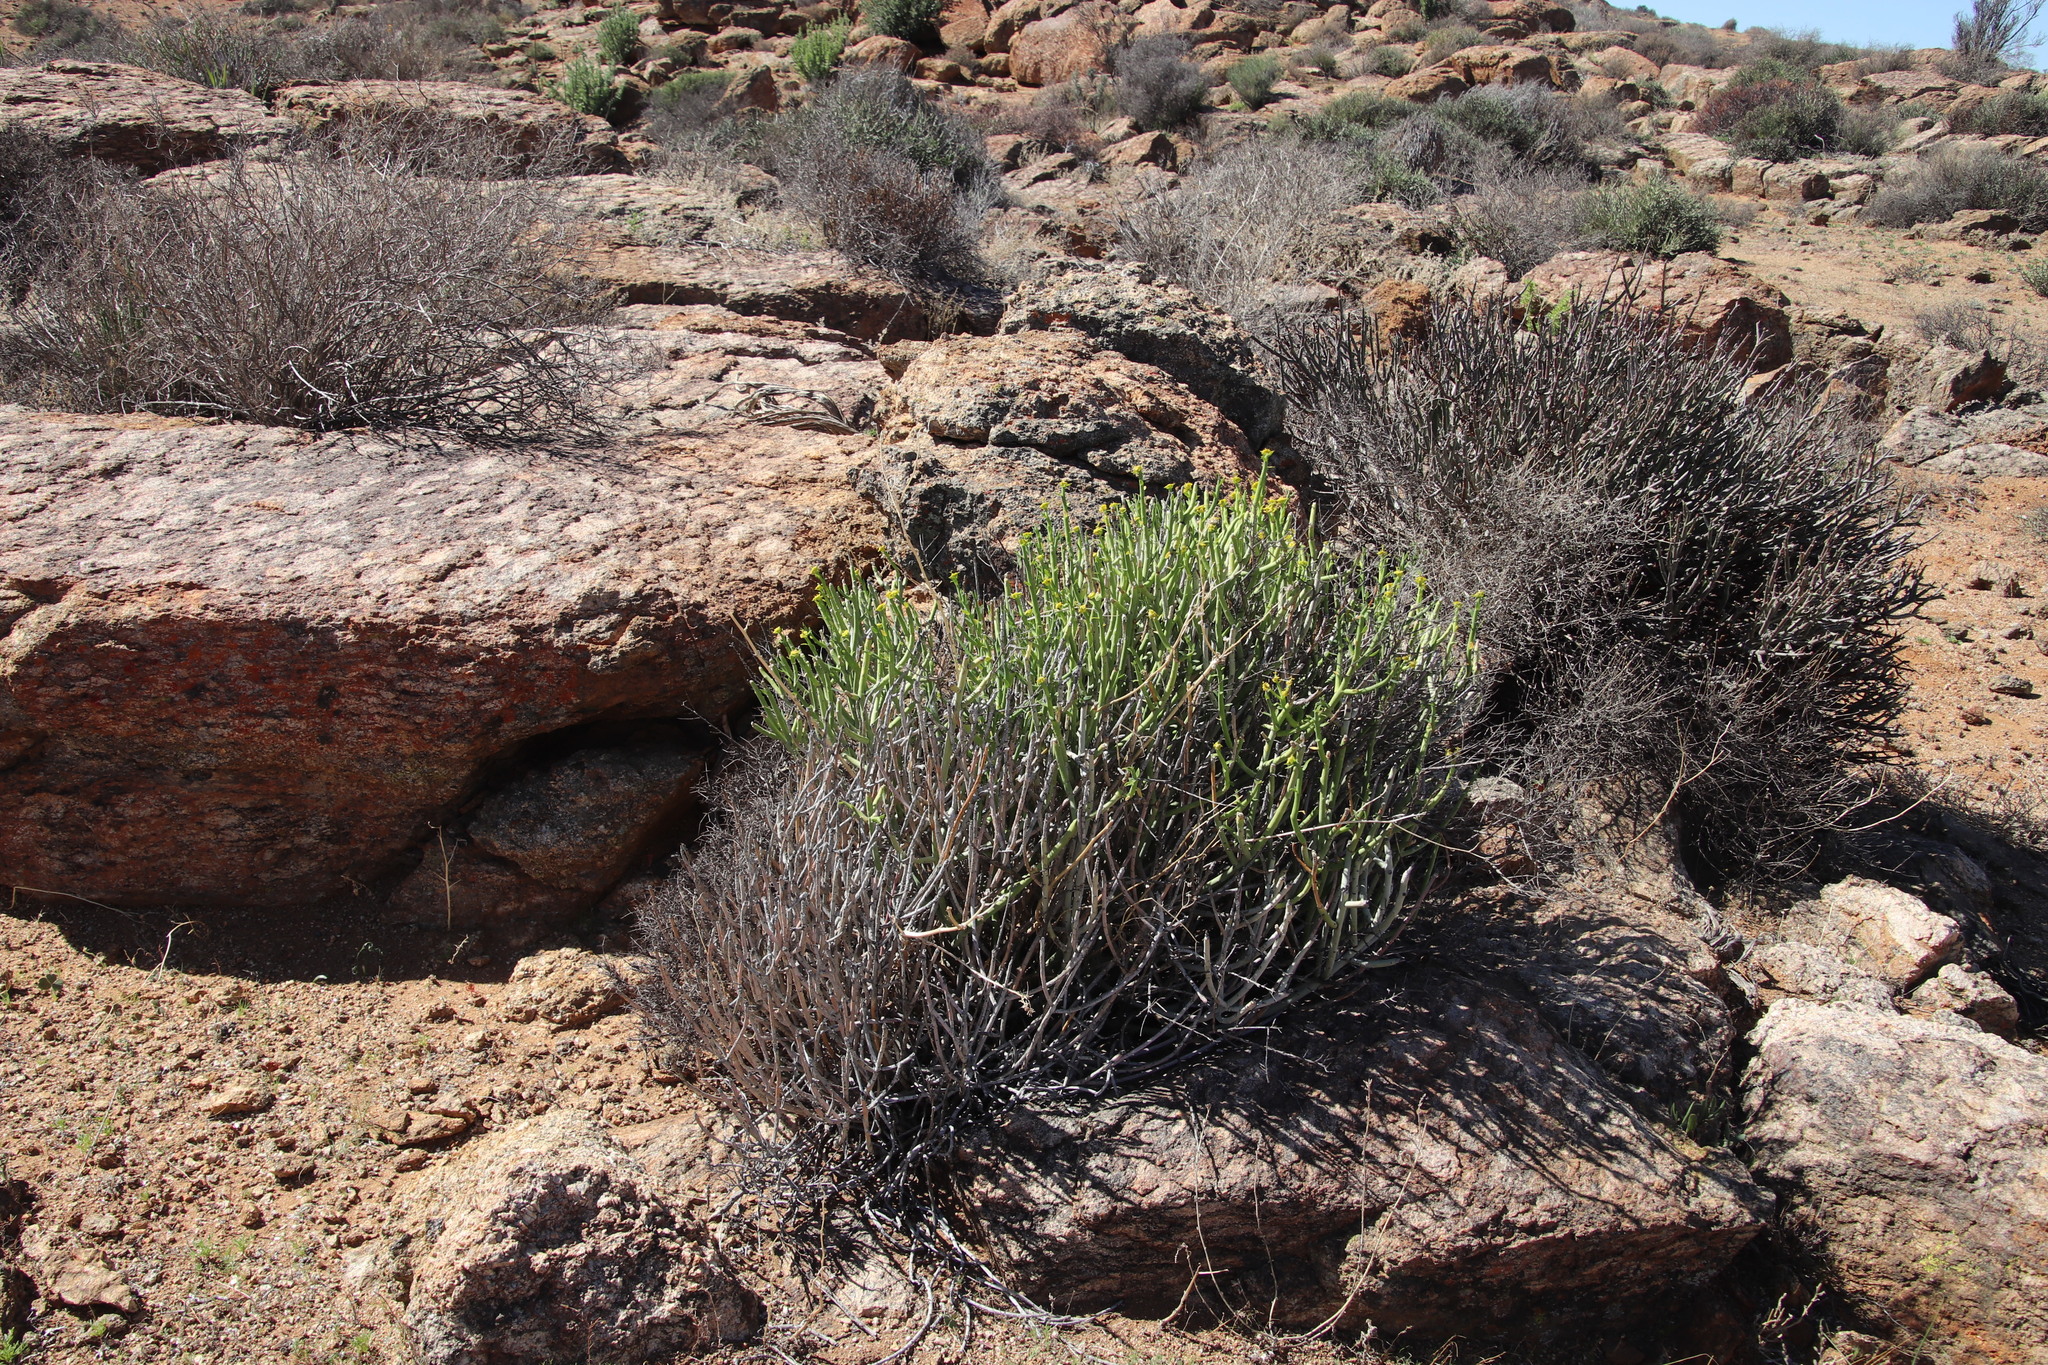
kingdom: Plantae
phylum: Tracheophyta
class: Magnoliopsida
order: Malpighiales
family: Euphorbiaceae
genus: Euphorbia
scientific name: Euphorbia mauritanica
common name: Jackal's-food
